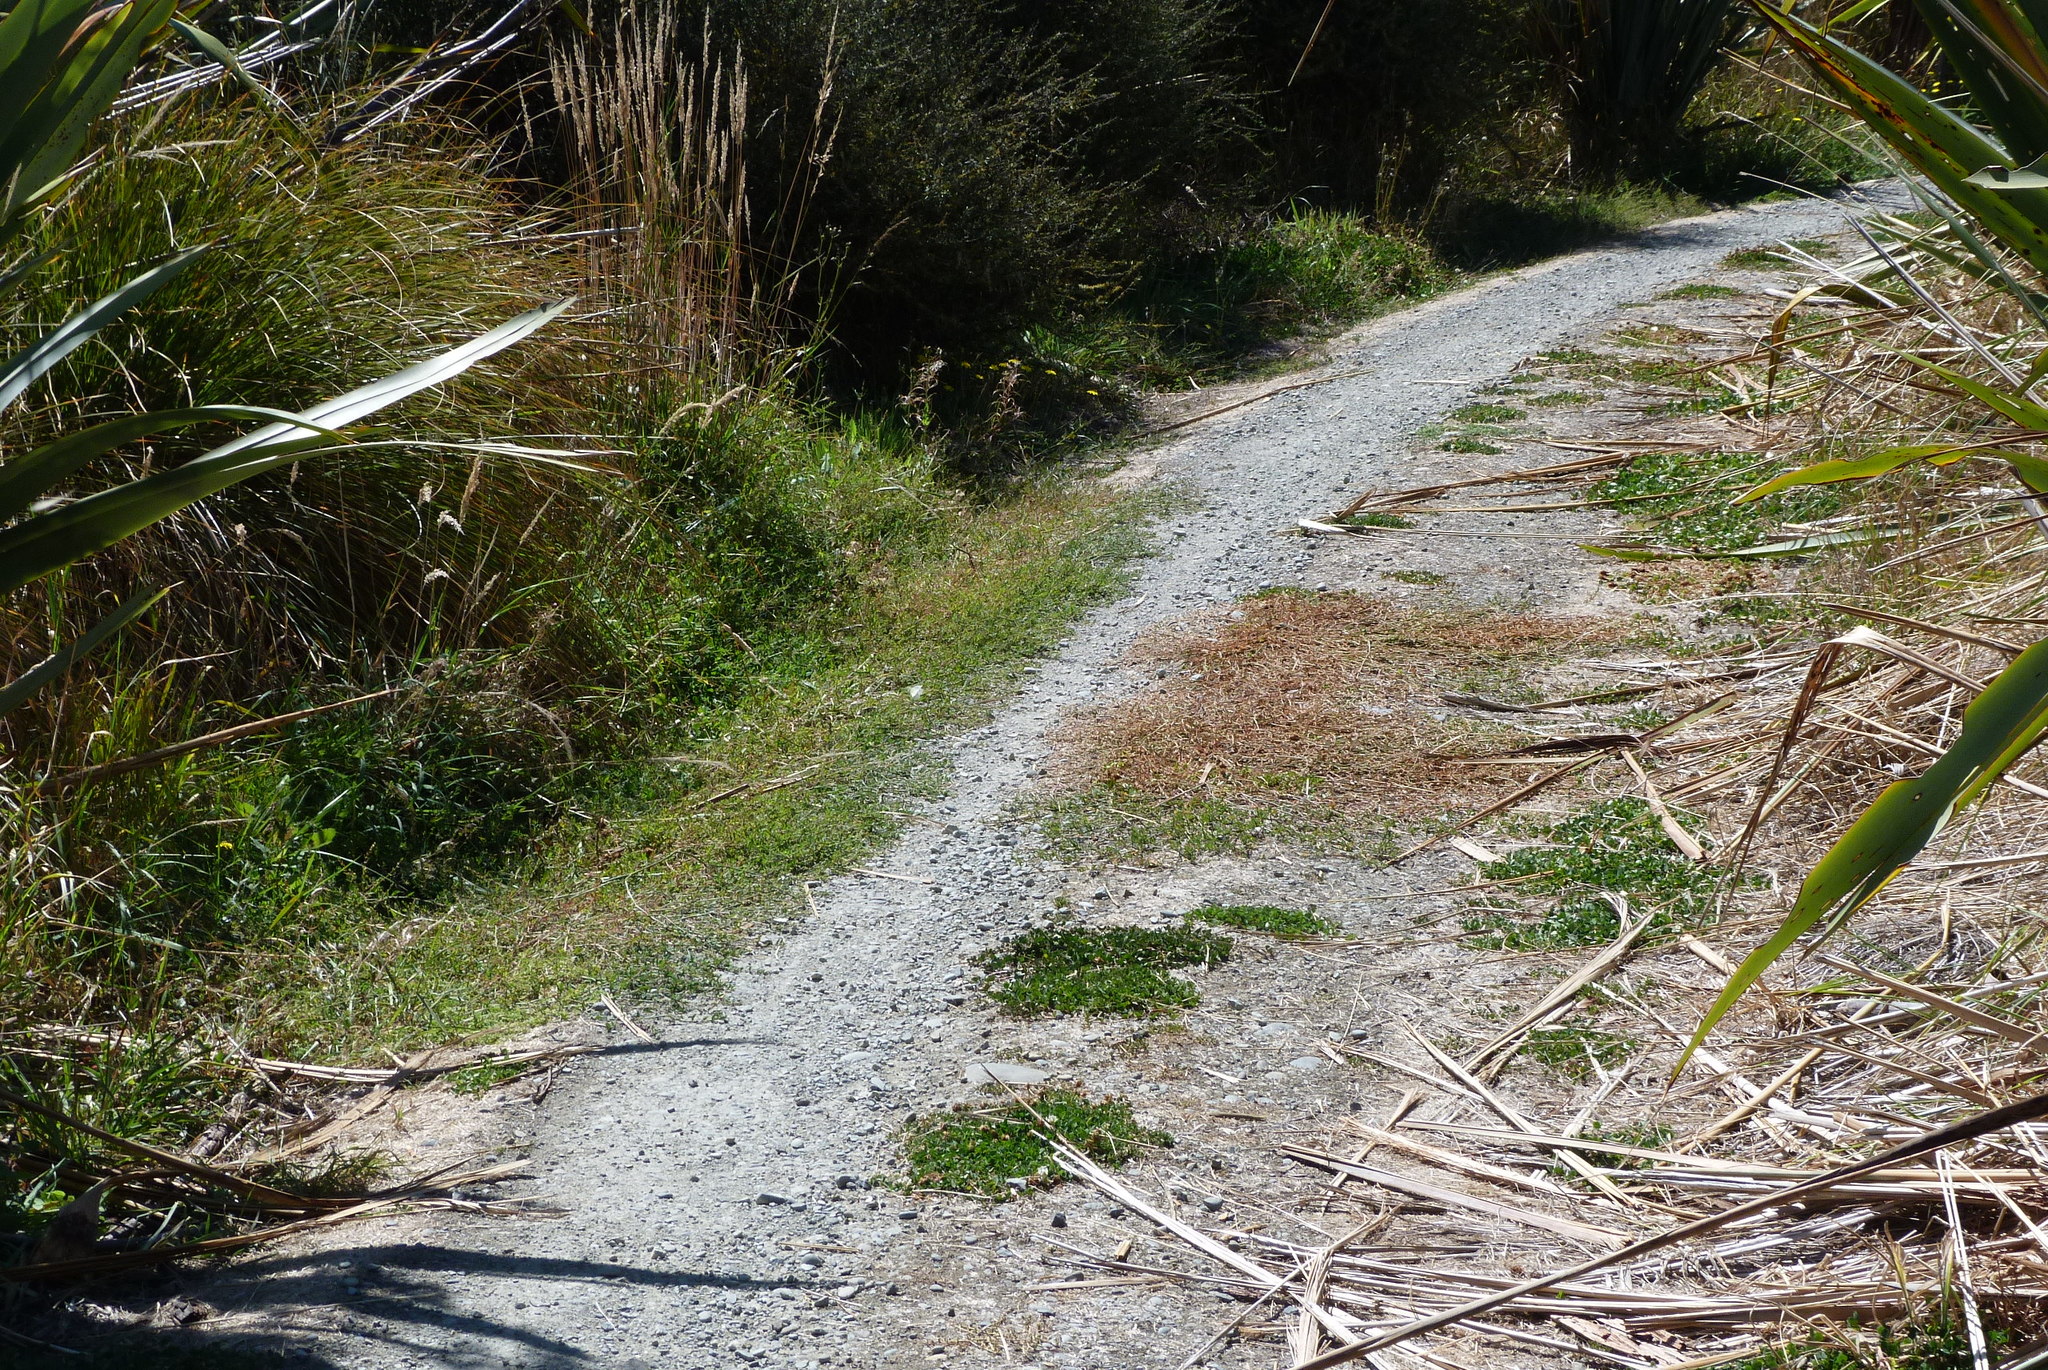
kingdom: Animalia
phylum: Arthropoda
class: Insecta
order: Lepidoptera
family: Pieridae
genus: Pieris
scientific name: Pieris rapae
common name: Small white
